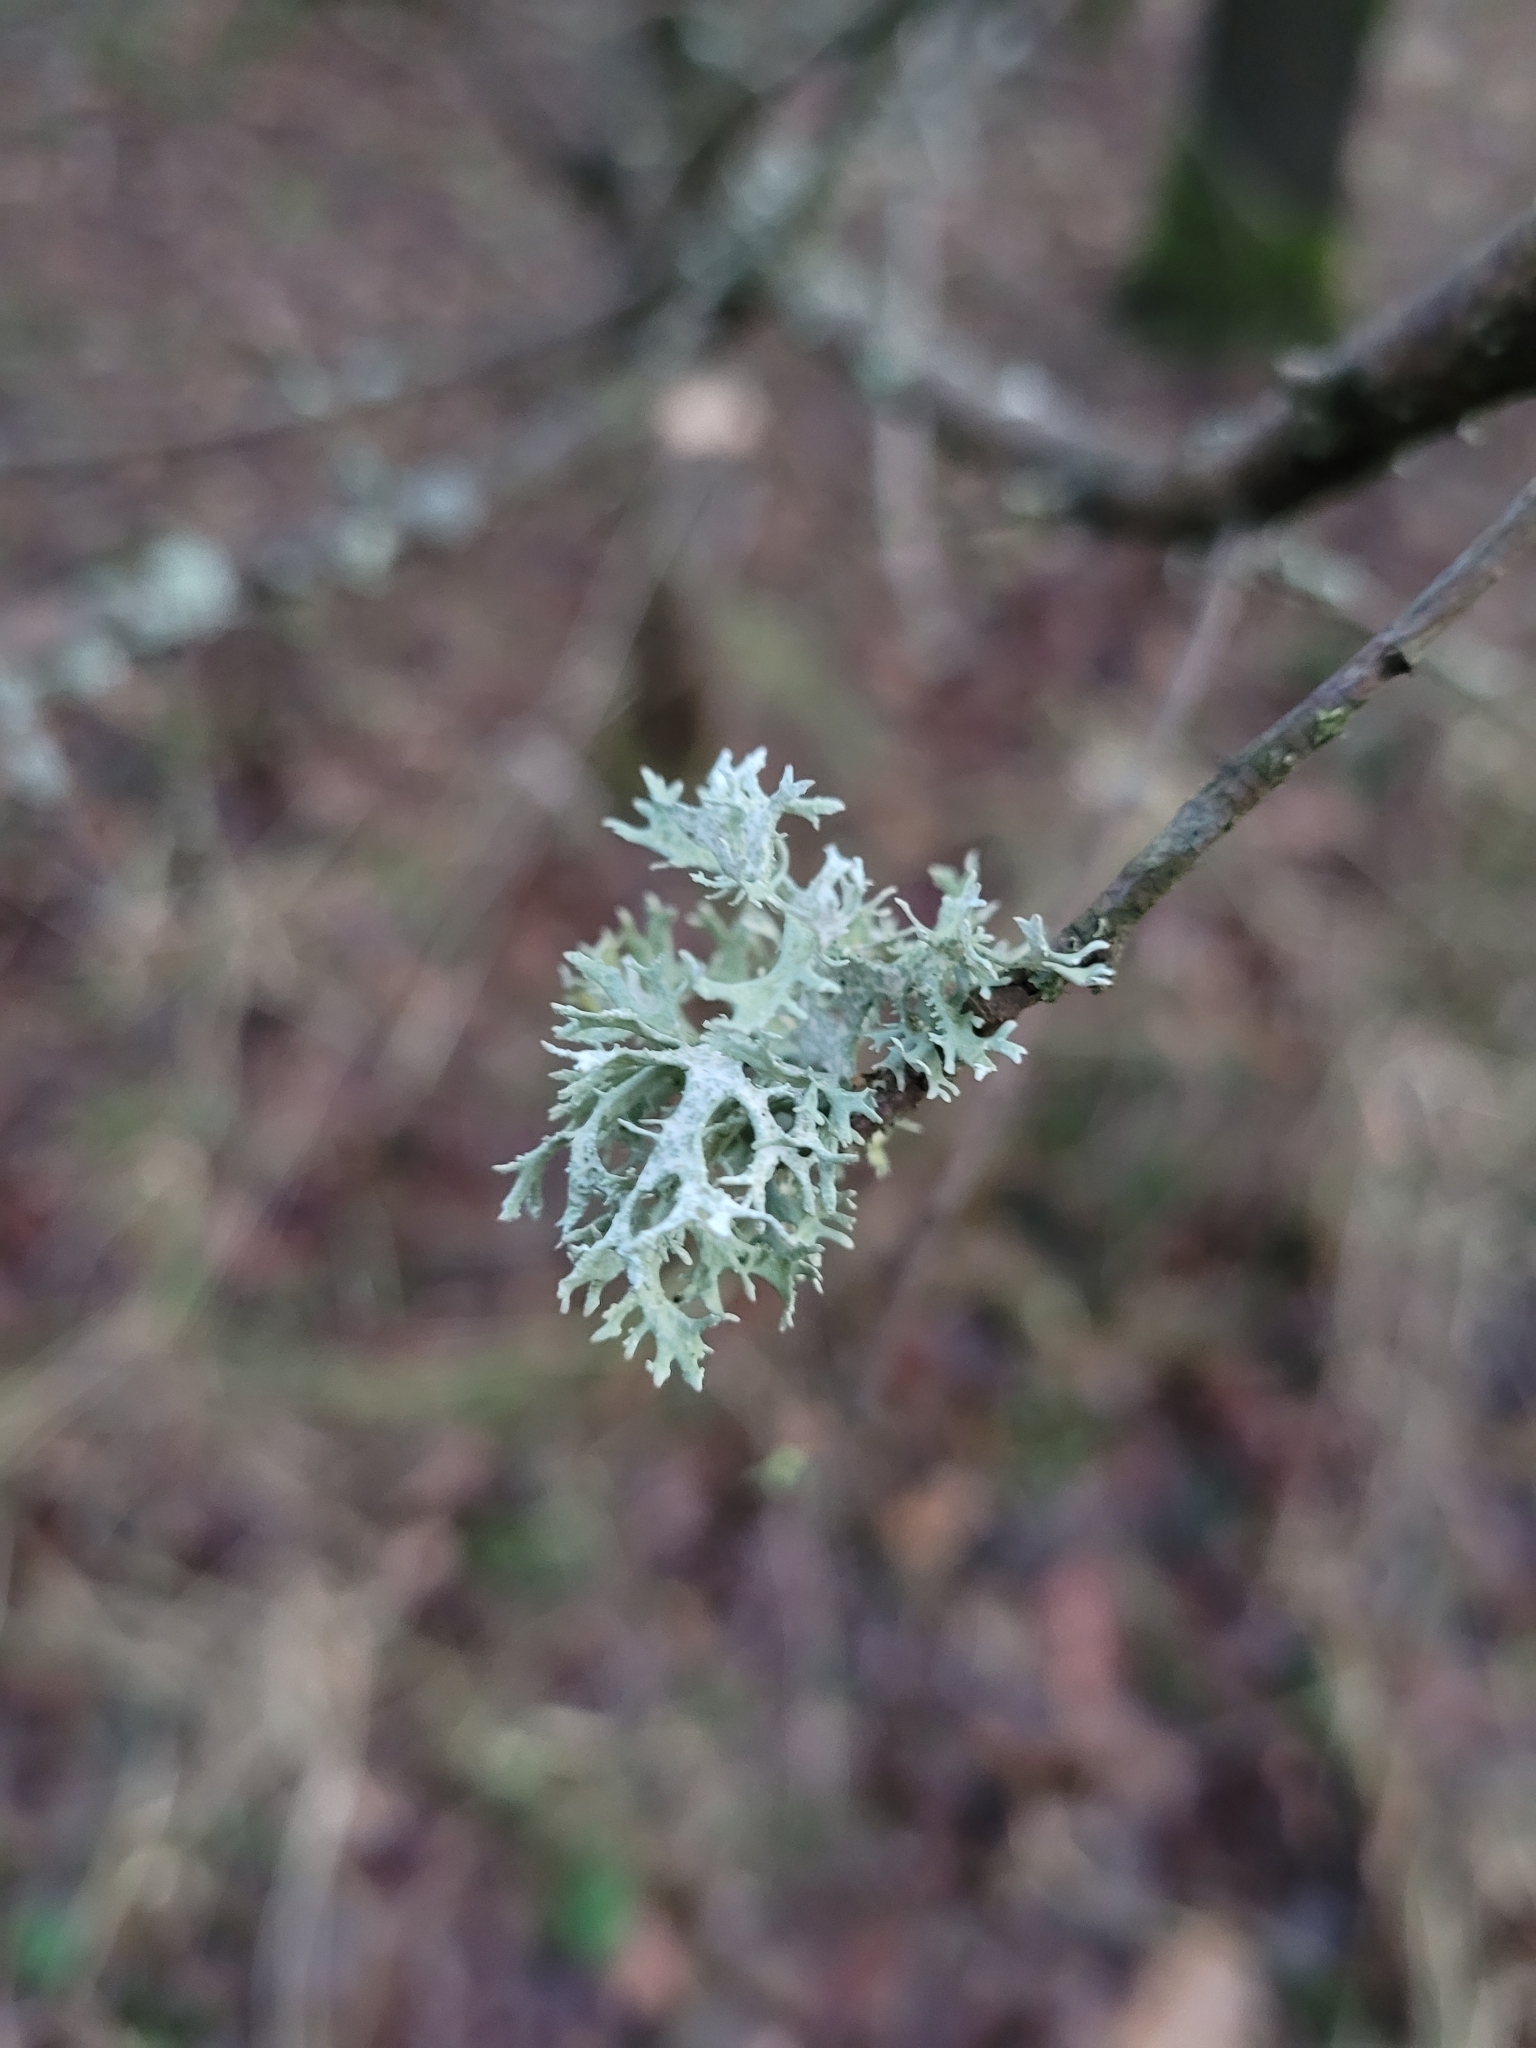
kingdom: Fungi
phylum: Ascomycota
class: Lecanoromycetes
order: Lecanorales
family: Parmeliaceae
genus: Evernia
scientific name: Evernia prunastri
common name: Oak moss
